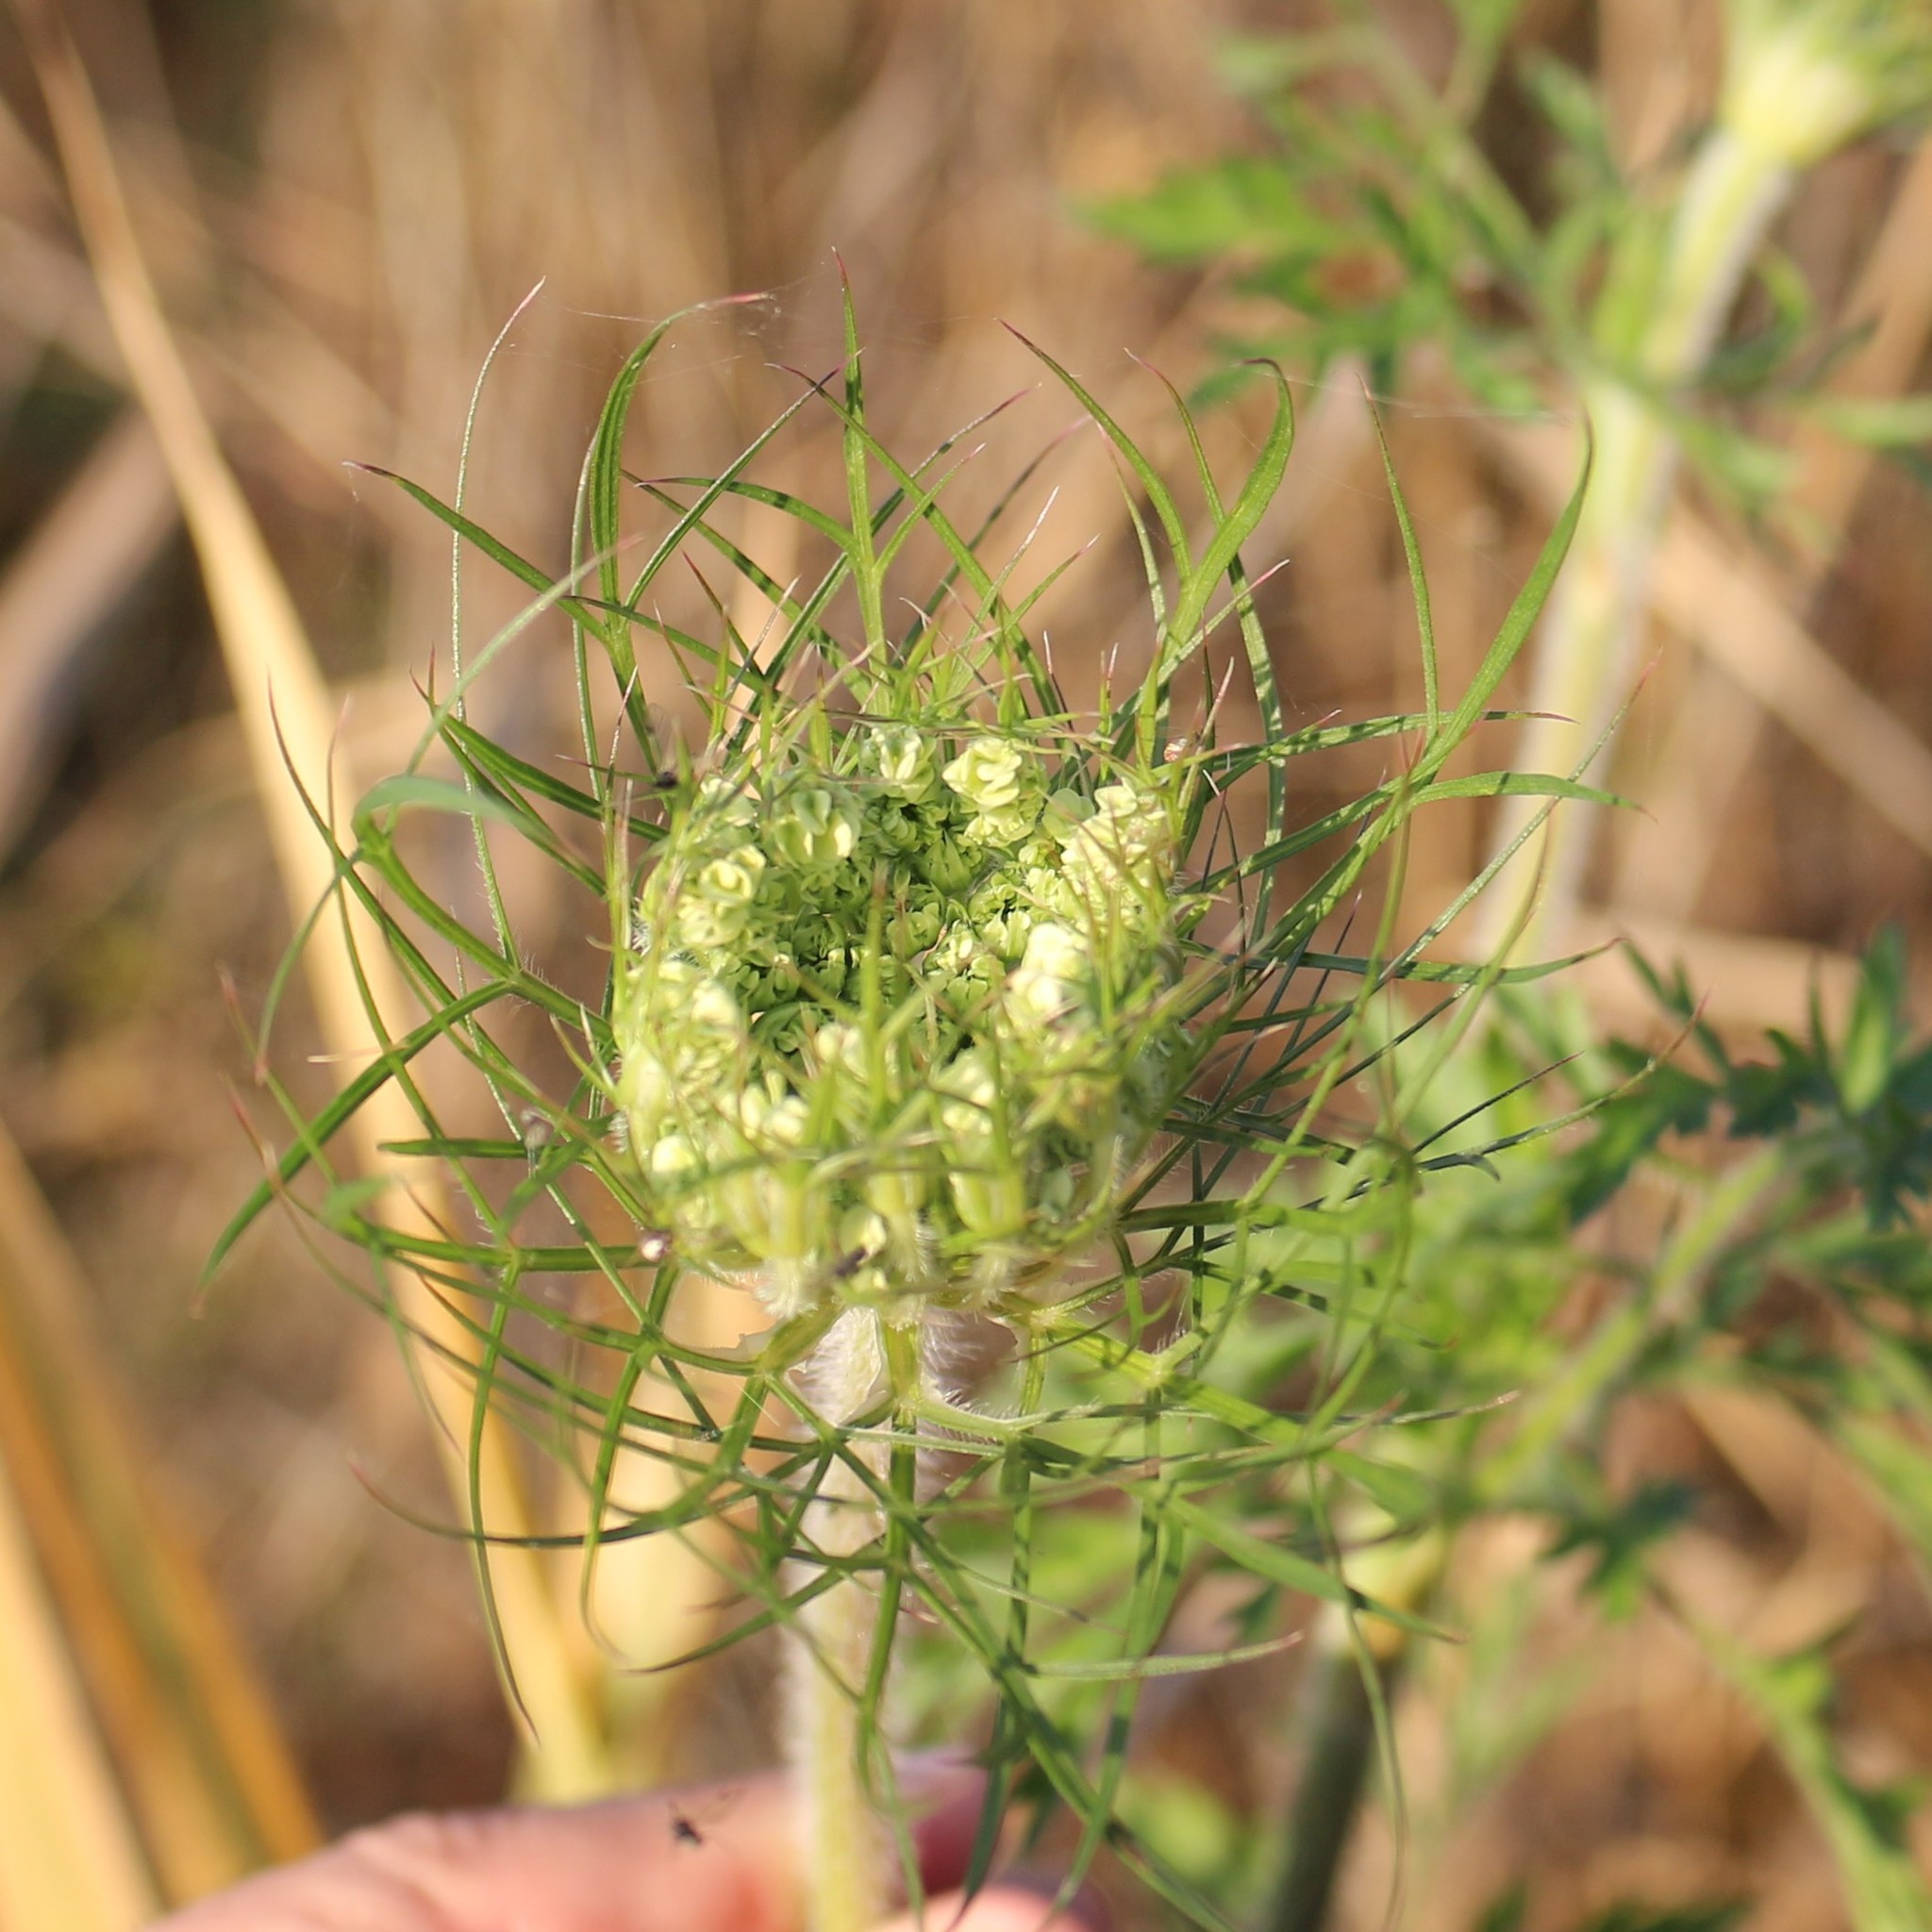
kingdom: Plantae
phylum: Tracheophyta
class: Magnoliopsida
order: Apiales
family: Apiaceae
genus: Daucus
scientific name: Daucus carota
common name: Wild carrot
